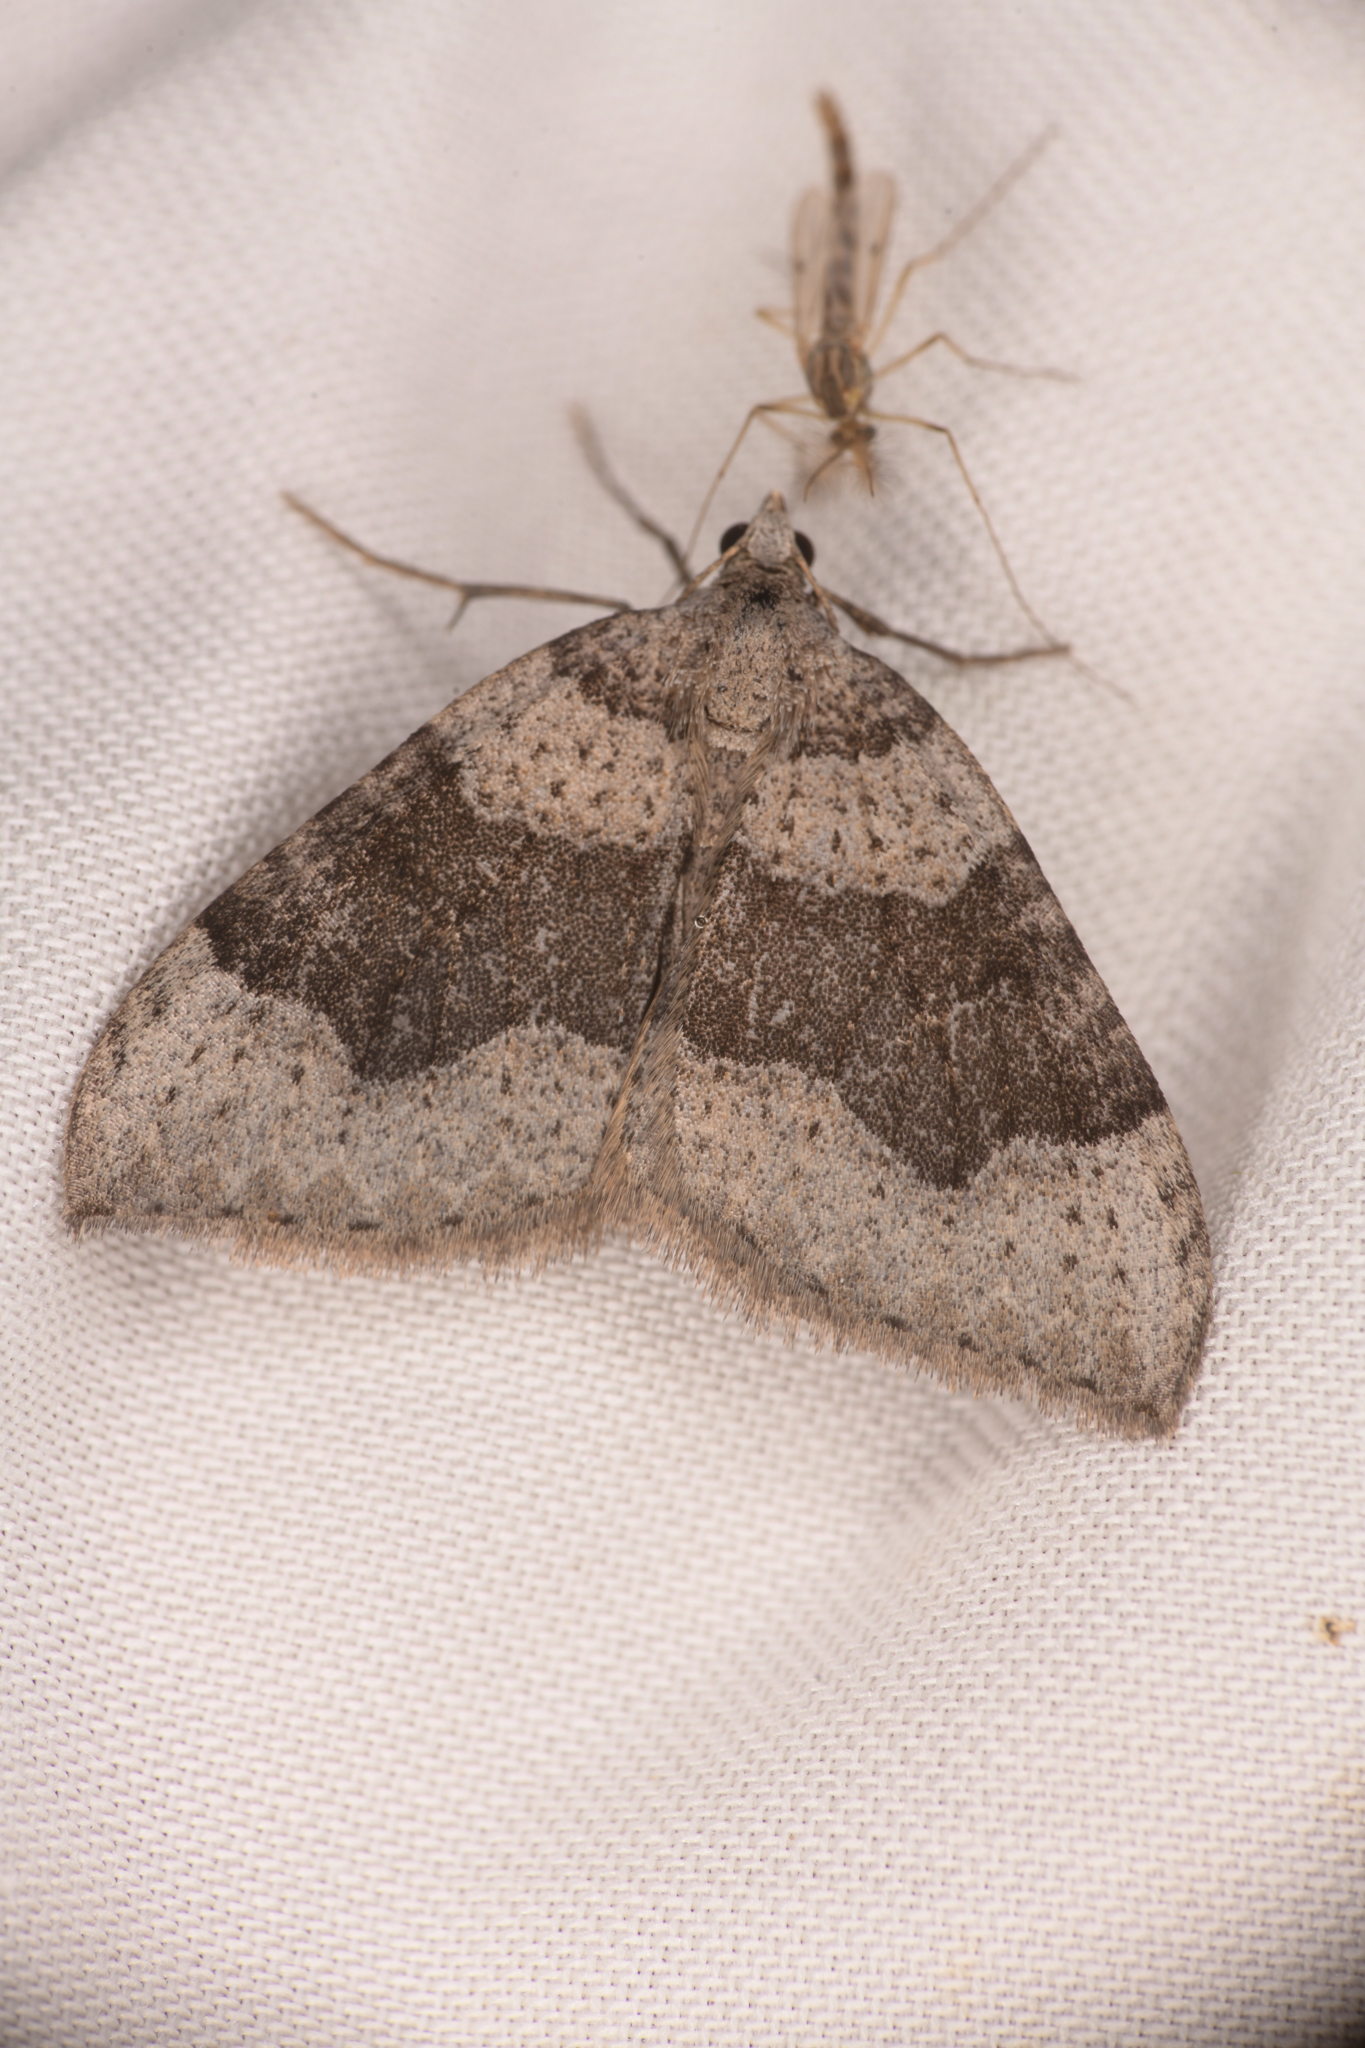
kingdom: Animalia
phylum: Arthropoda
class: Insecta
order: Lepidoptera
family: Geometridae
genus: Zenophleps
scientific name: Zenophleps lignicolorata
